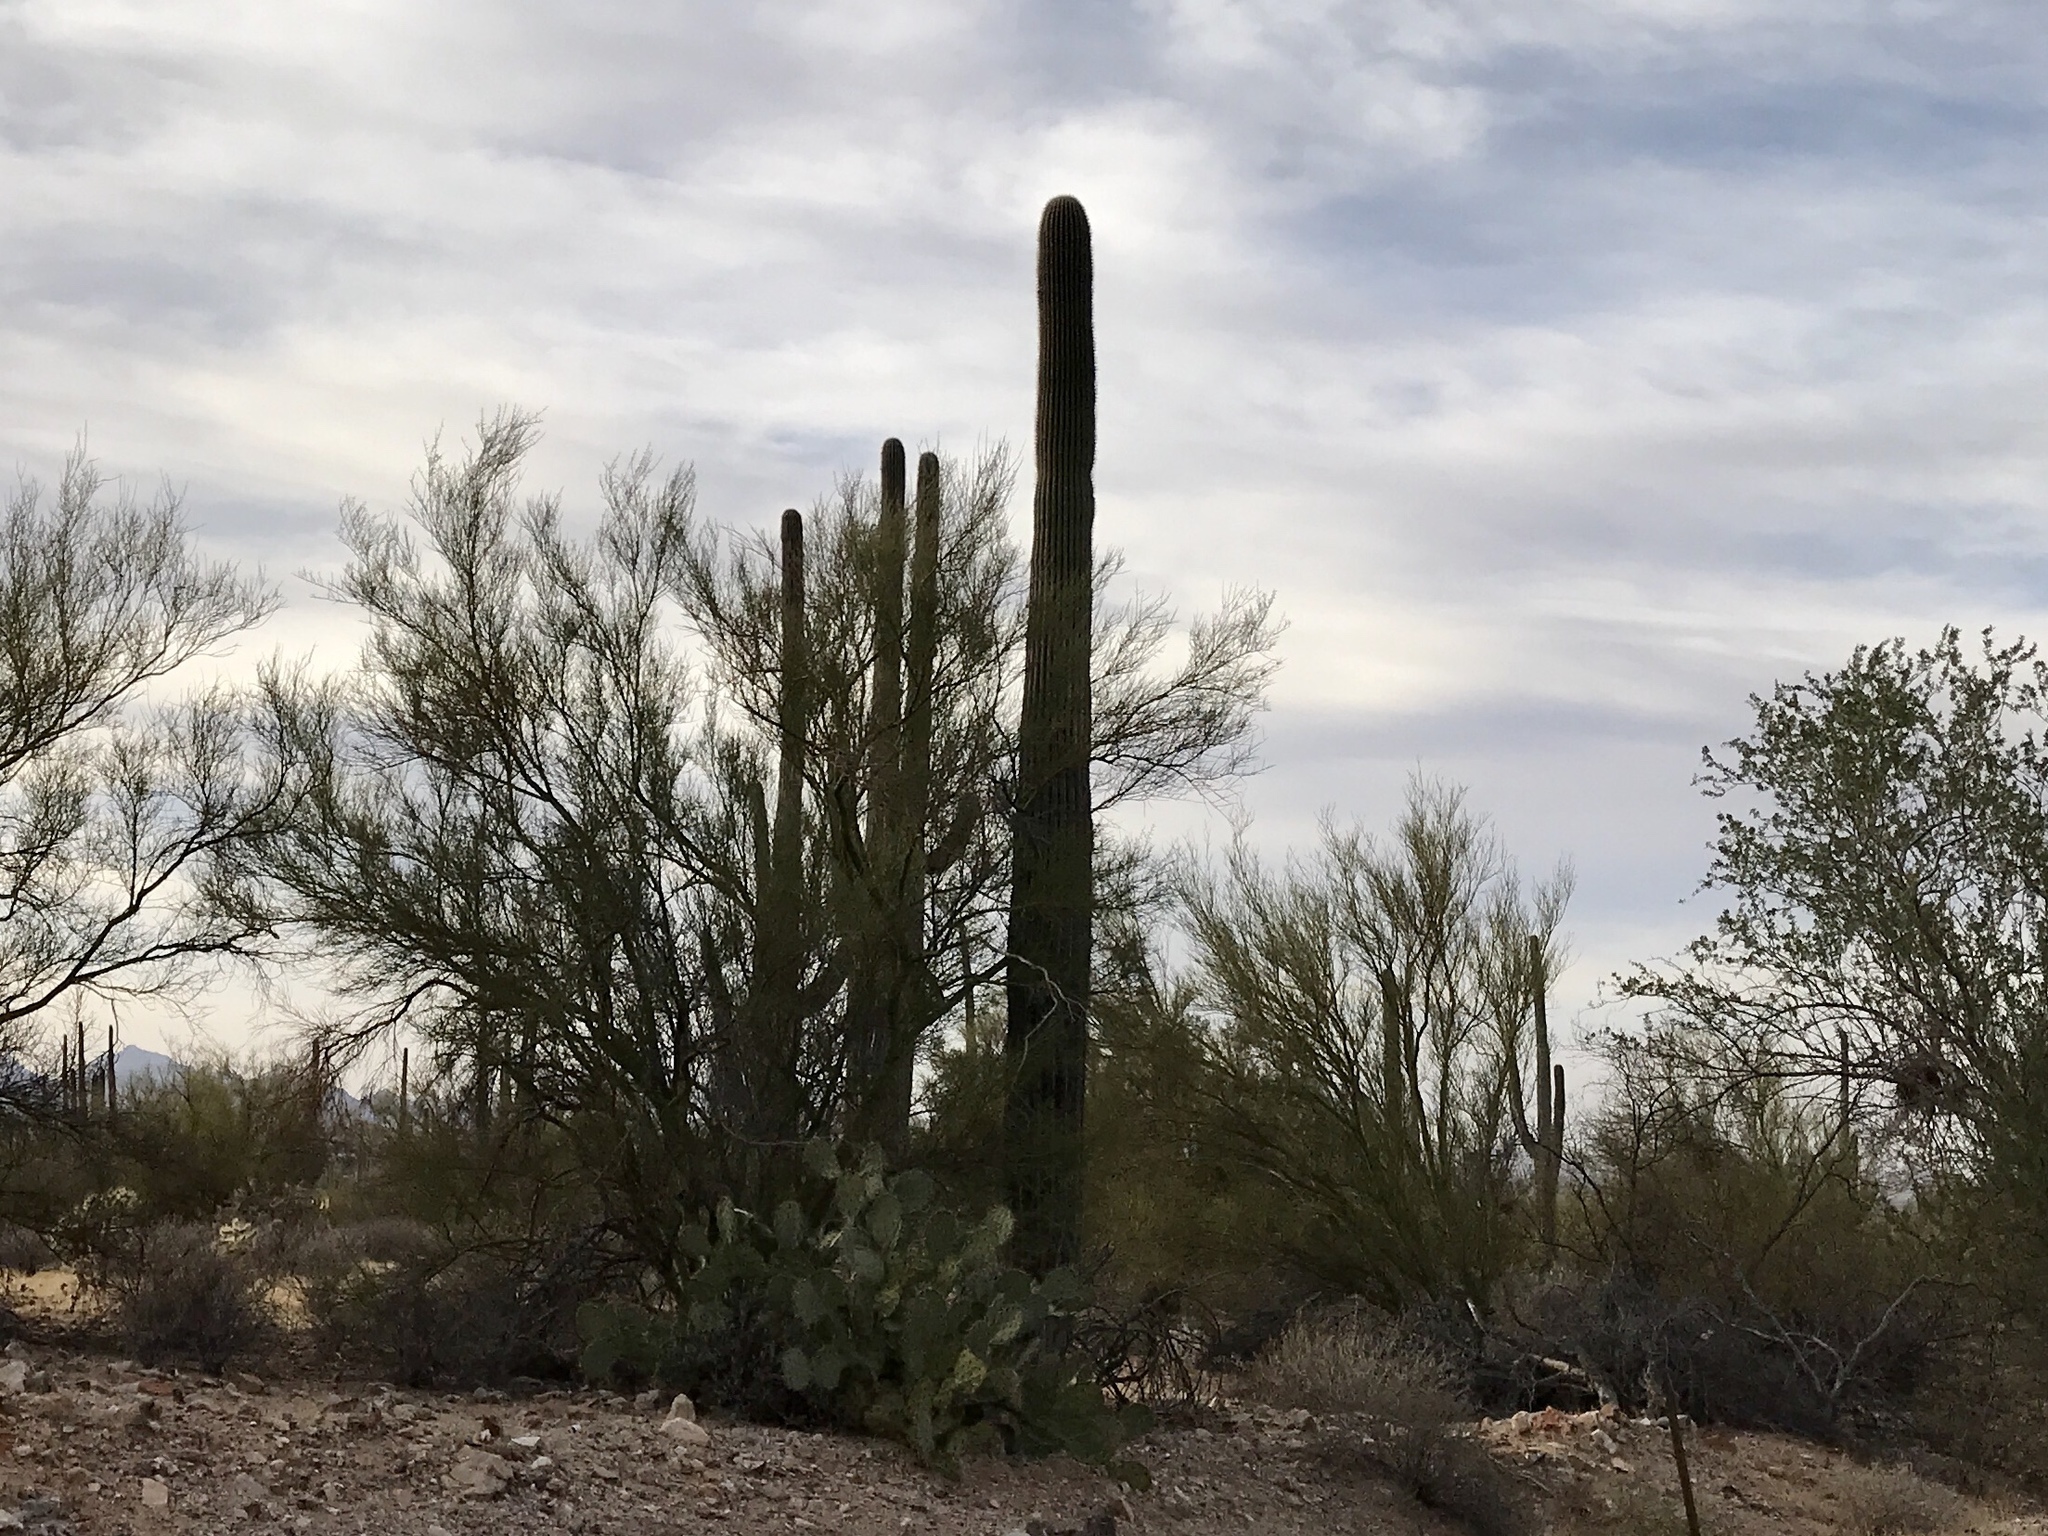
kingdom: Plantae
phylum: Tracheophyta
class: Magnoliopsida
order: Caryophyllales
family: Cactaceae
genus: Carnegiea
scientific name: Carnegiea gigantea
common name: Saguaro
